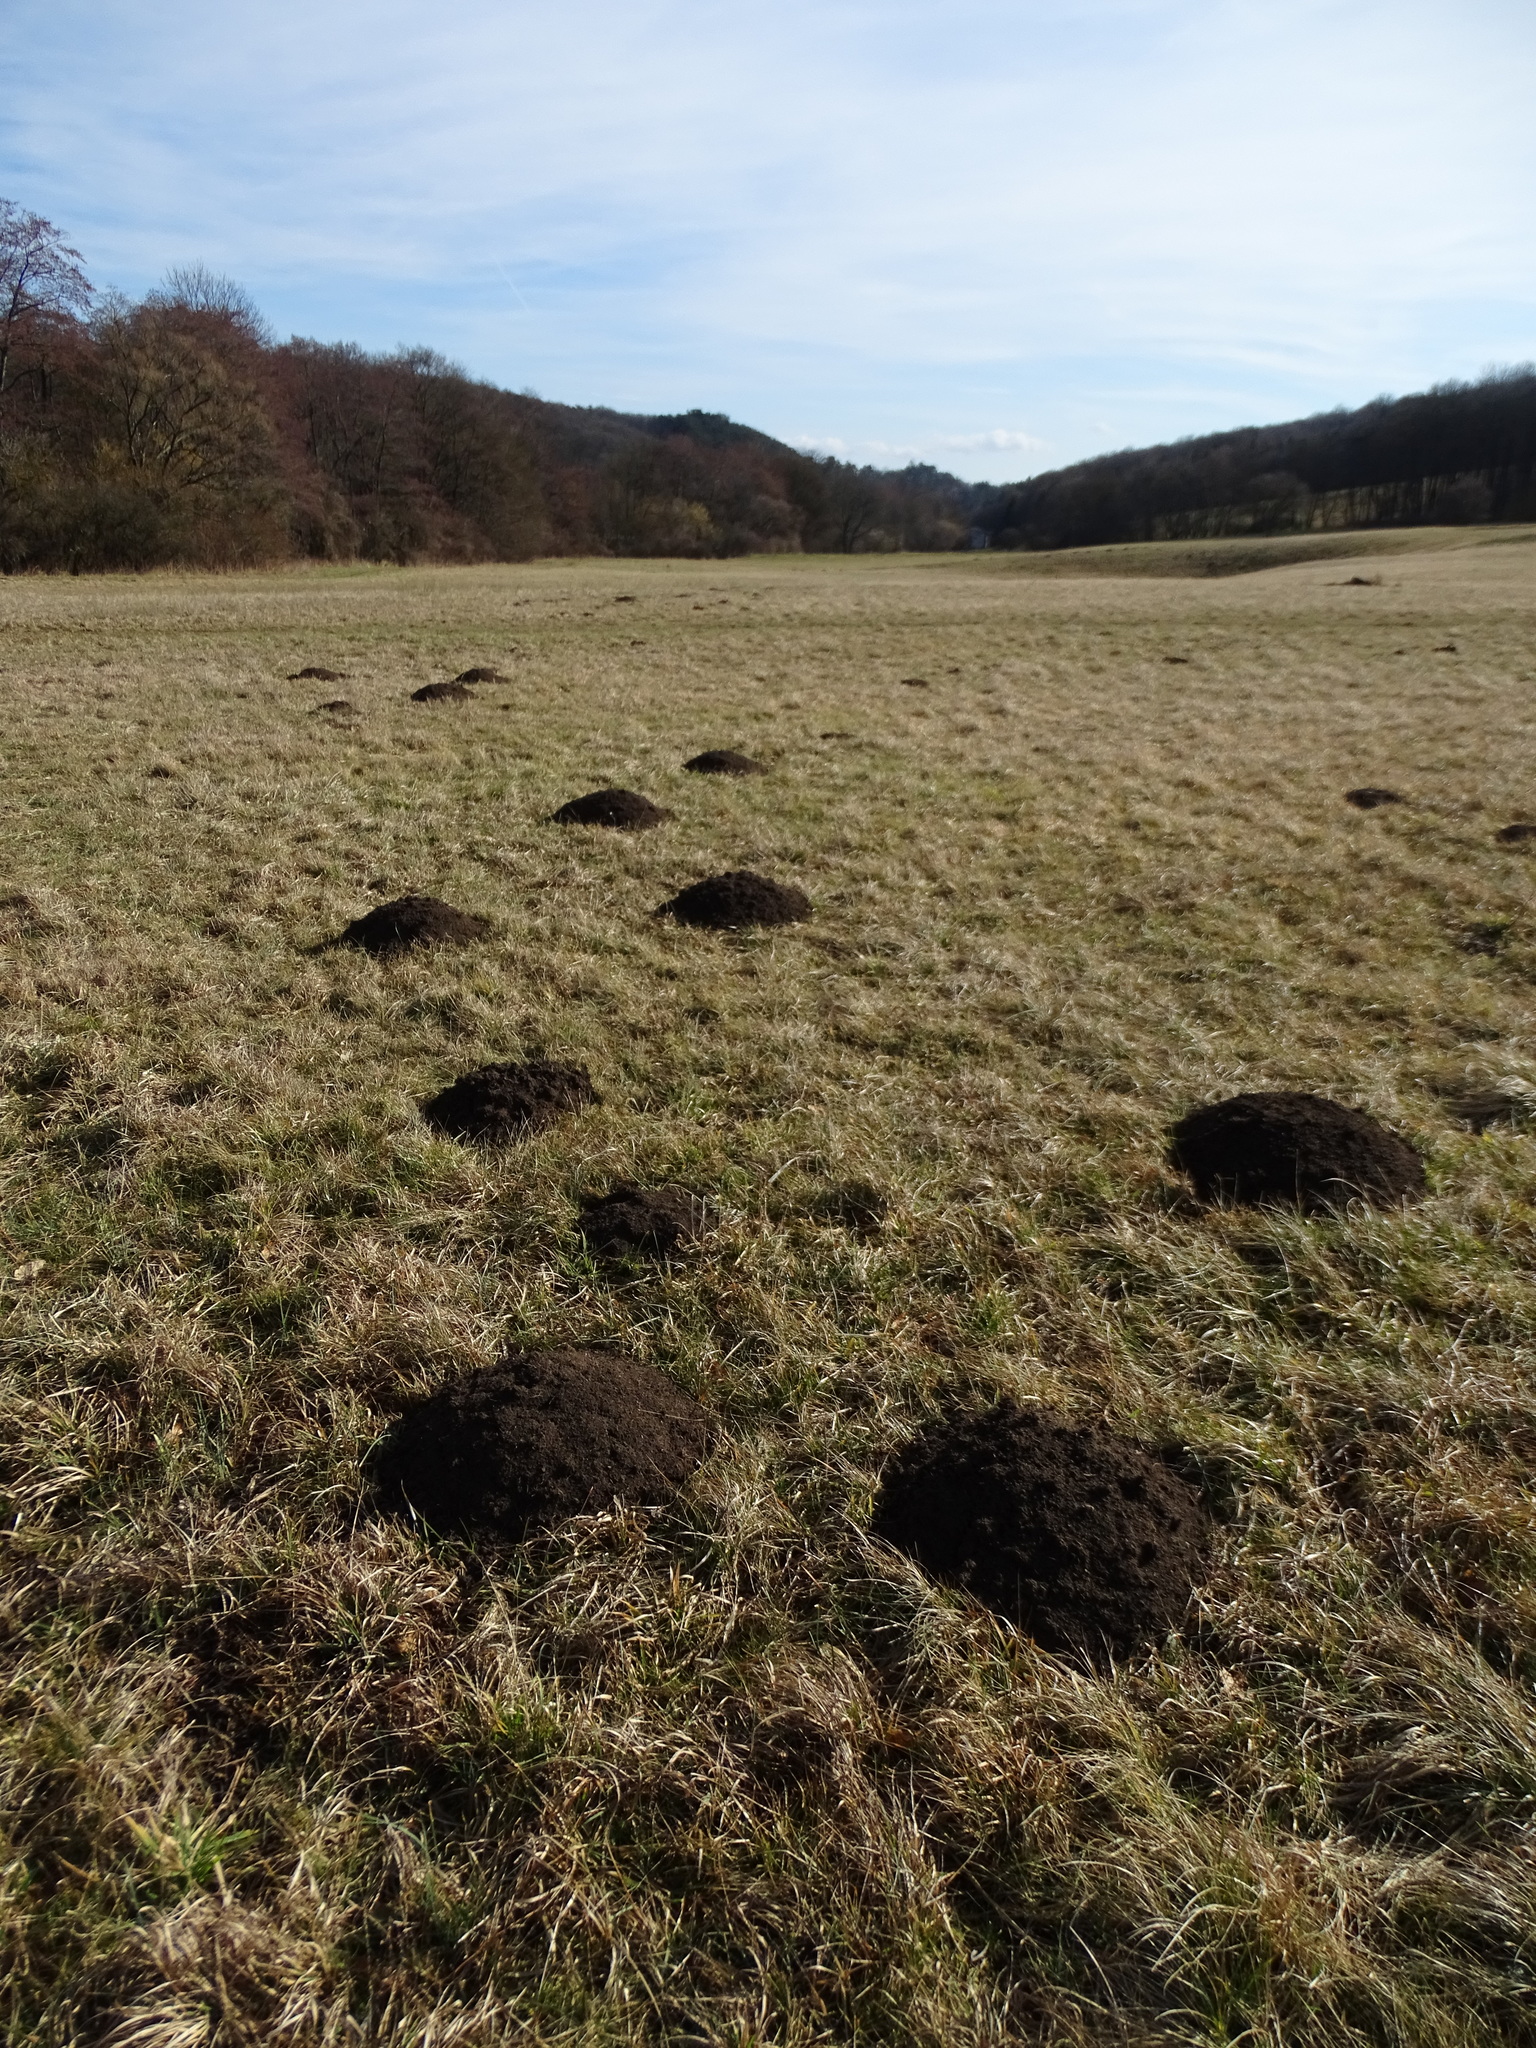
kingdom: Animalia
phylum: Chordata
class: Mammalia
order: Soricomorpha
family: Talpidae
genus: Talpa
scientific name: Talpa europaea
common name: European mole
